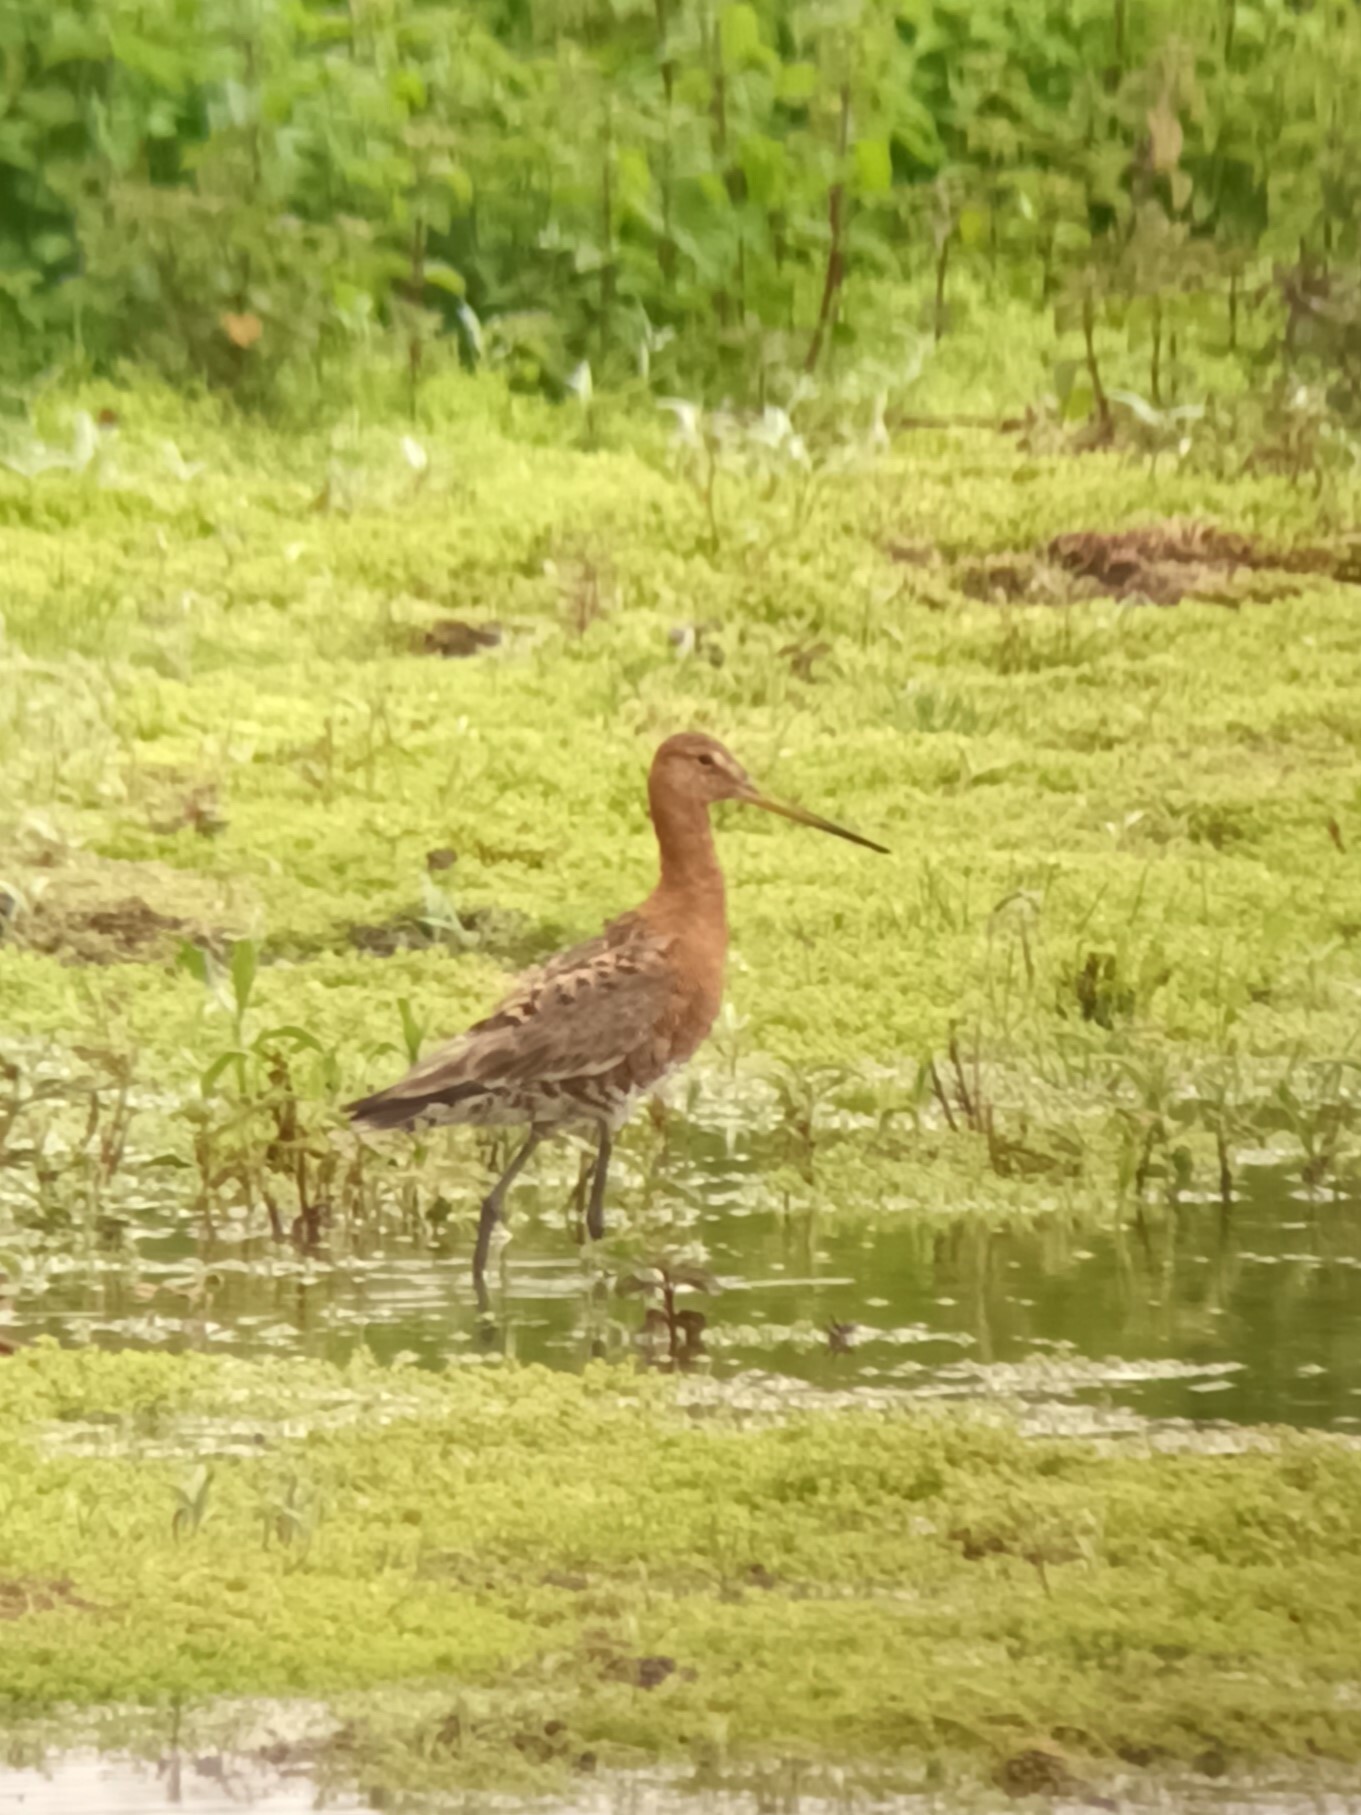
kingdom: Animalia
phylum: Chordata
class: Aves
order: Charadriiformes
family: Scolopacidae
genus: Limosa
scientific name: Limosa limosa
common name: Black-tailed godwit
